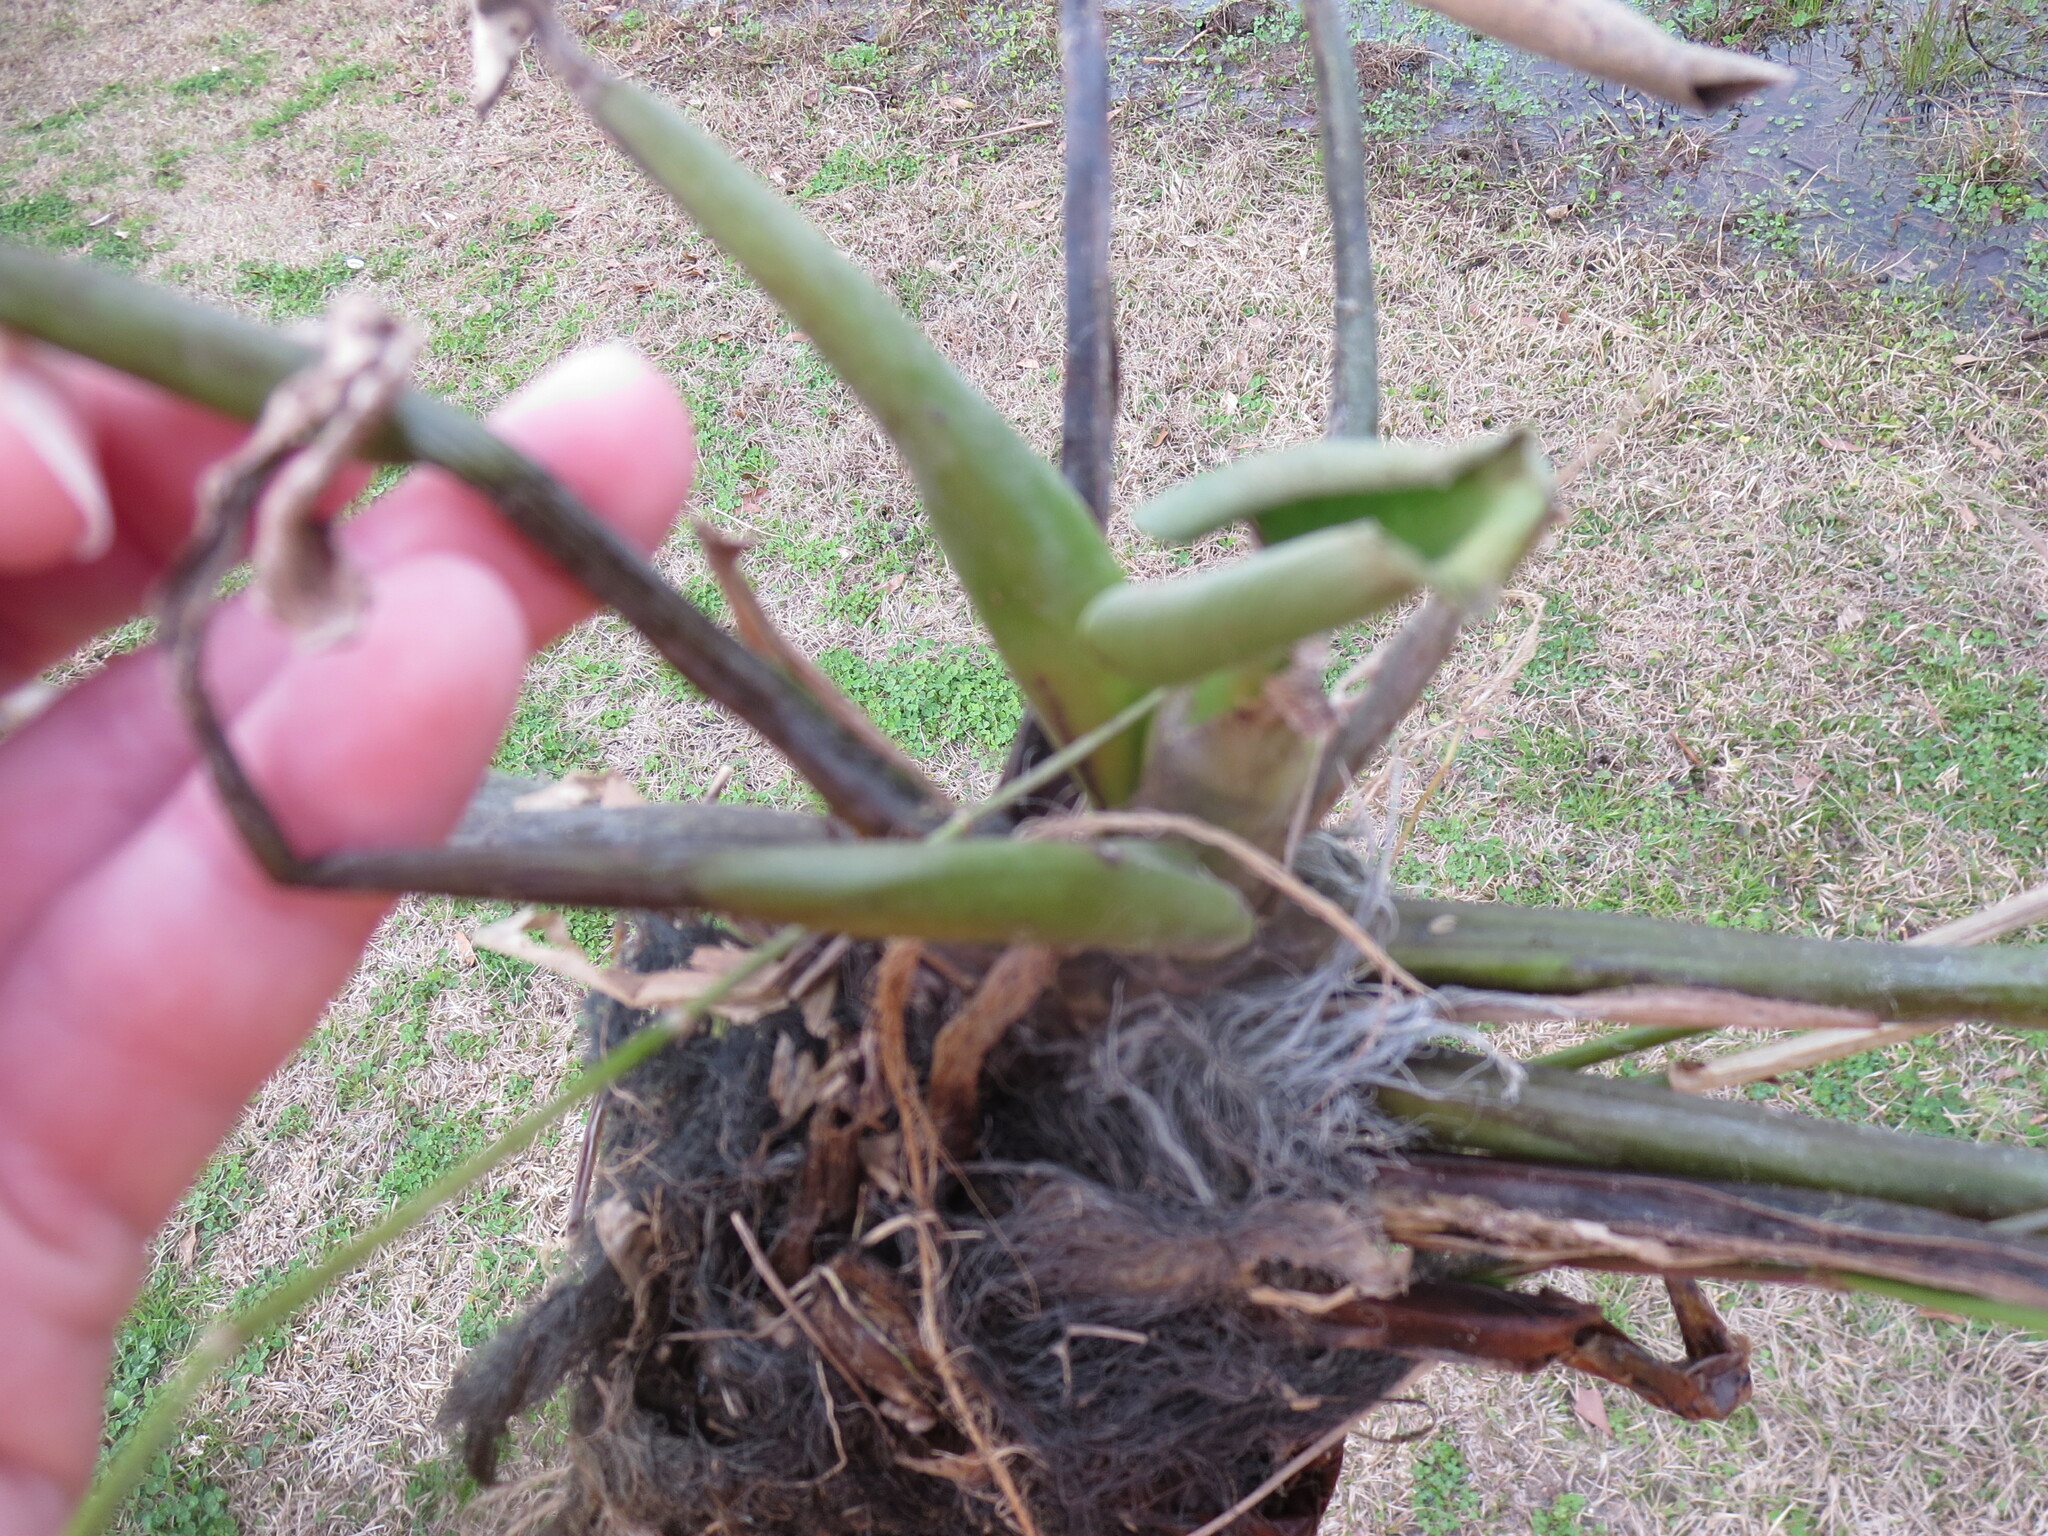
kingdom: Plantae
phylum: Tracheophyta
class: Liliopsida
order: Commelinales
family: Pontederiaceae
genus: Pontederia
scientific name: Pontederia crassipes
